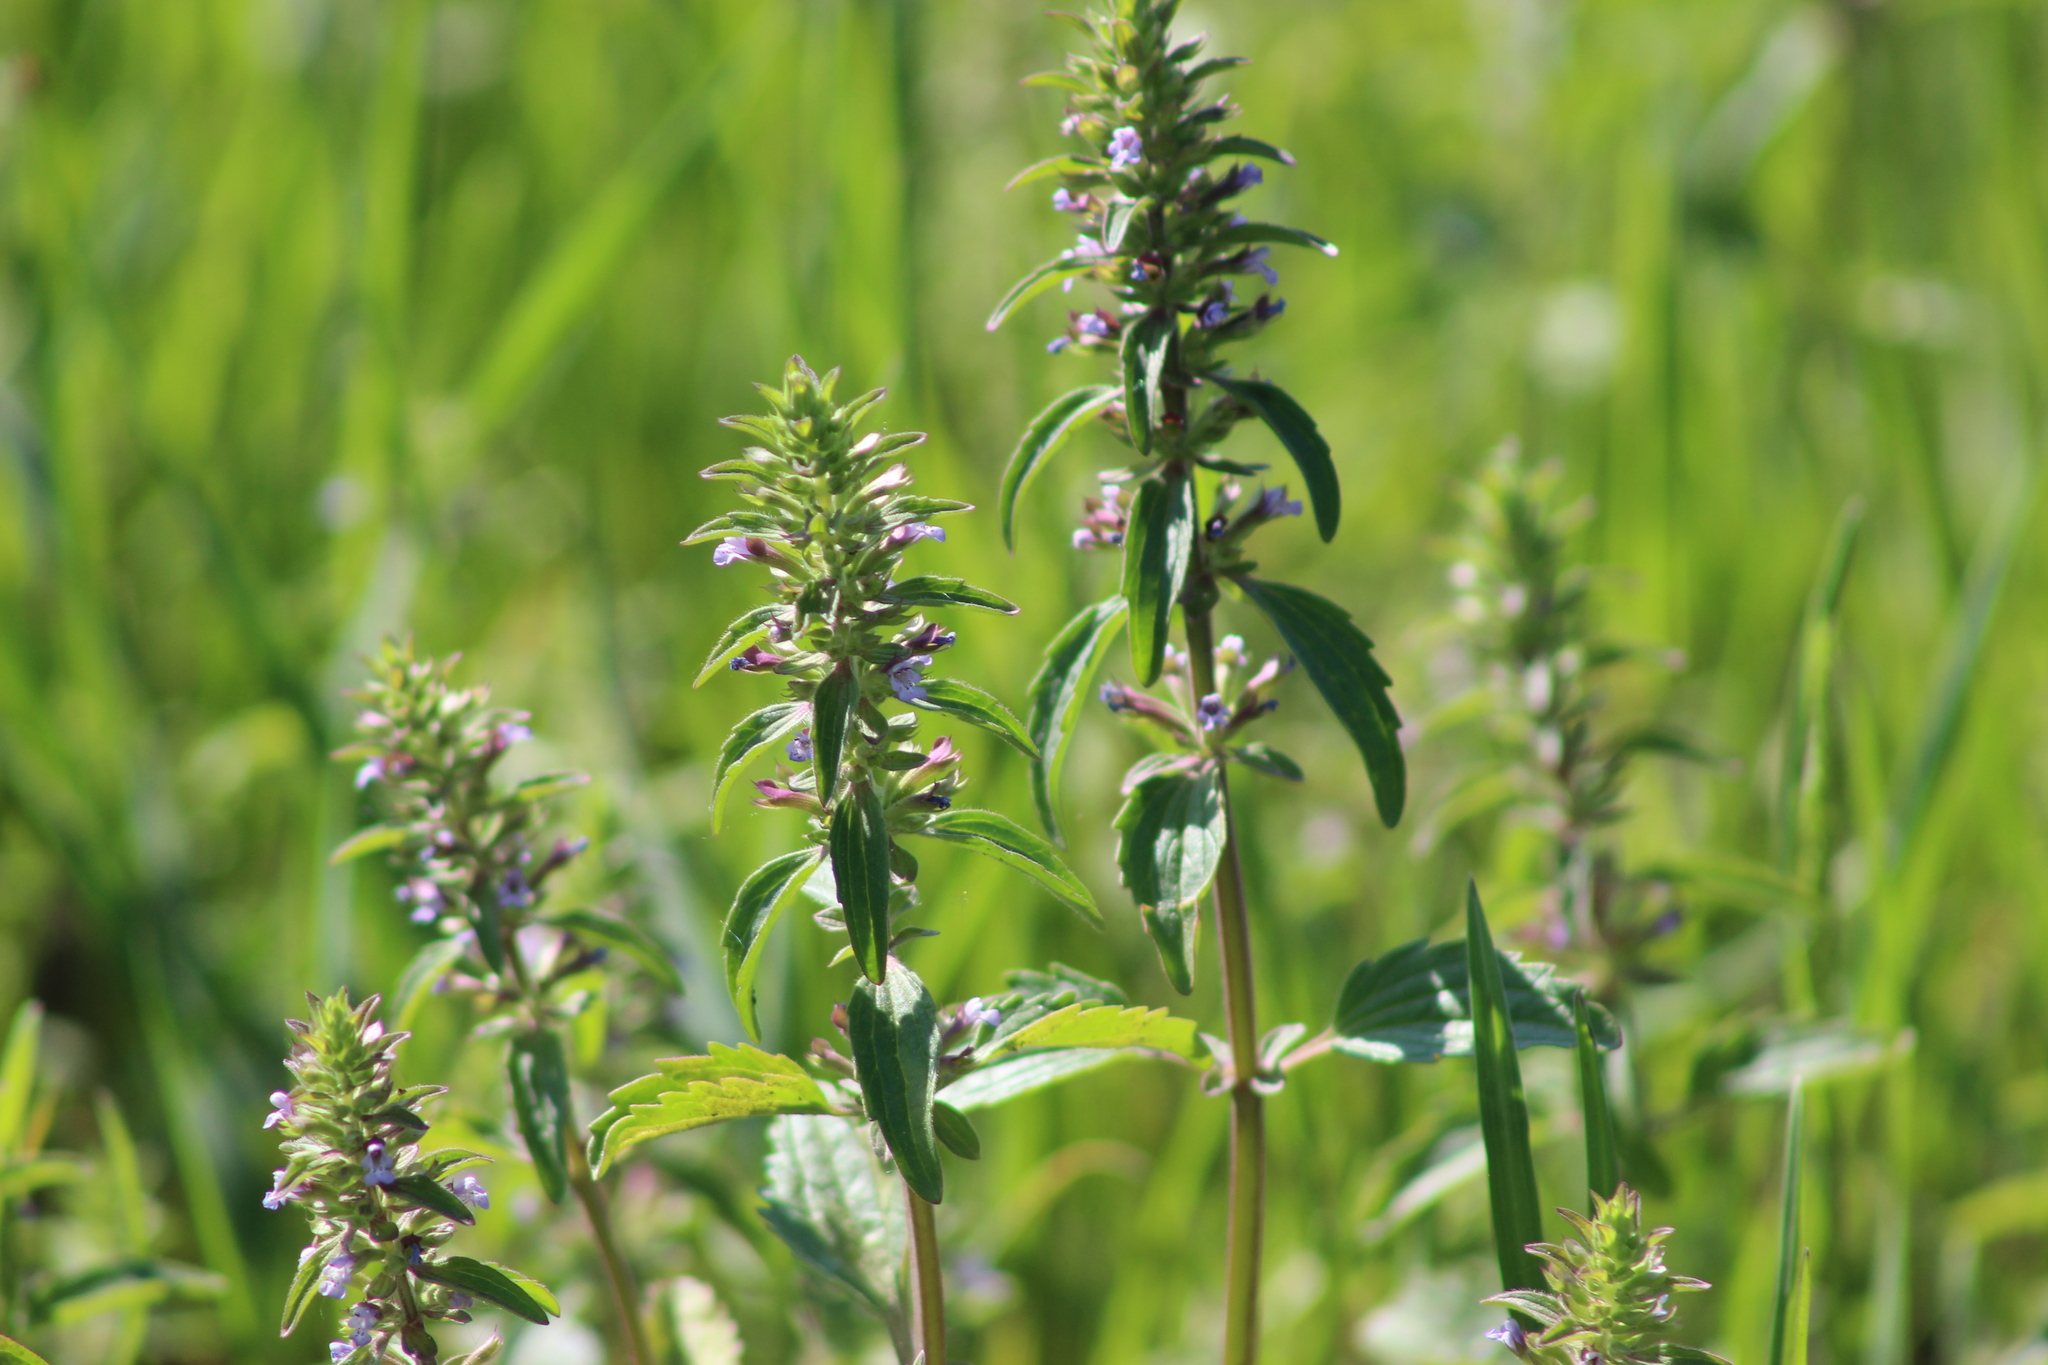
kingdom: Plantae
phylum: Tracheophyta
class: Magnoliopsida
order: Lamiales
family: Lamiaceae
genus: Dracocephalum
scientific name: Dracocephalum thymiflorum
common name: Thymeleaf dragonhead
